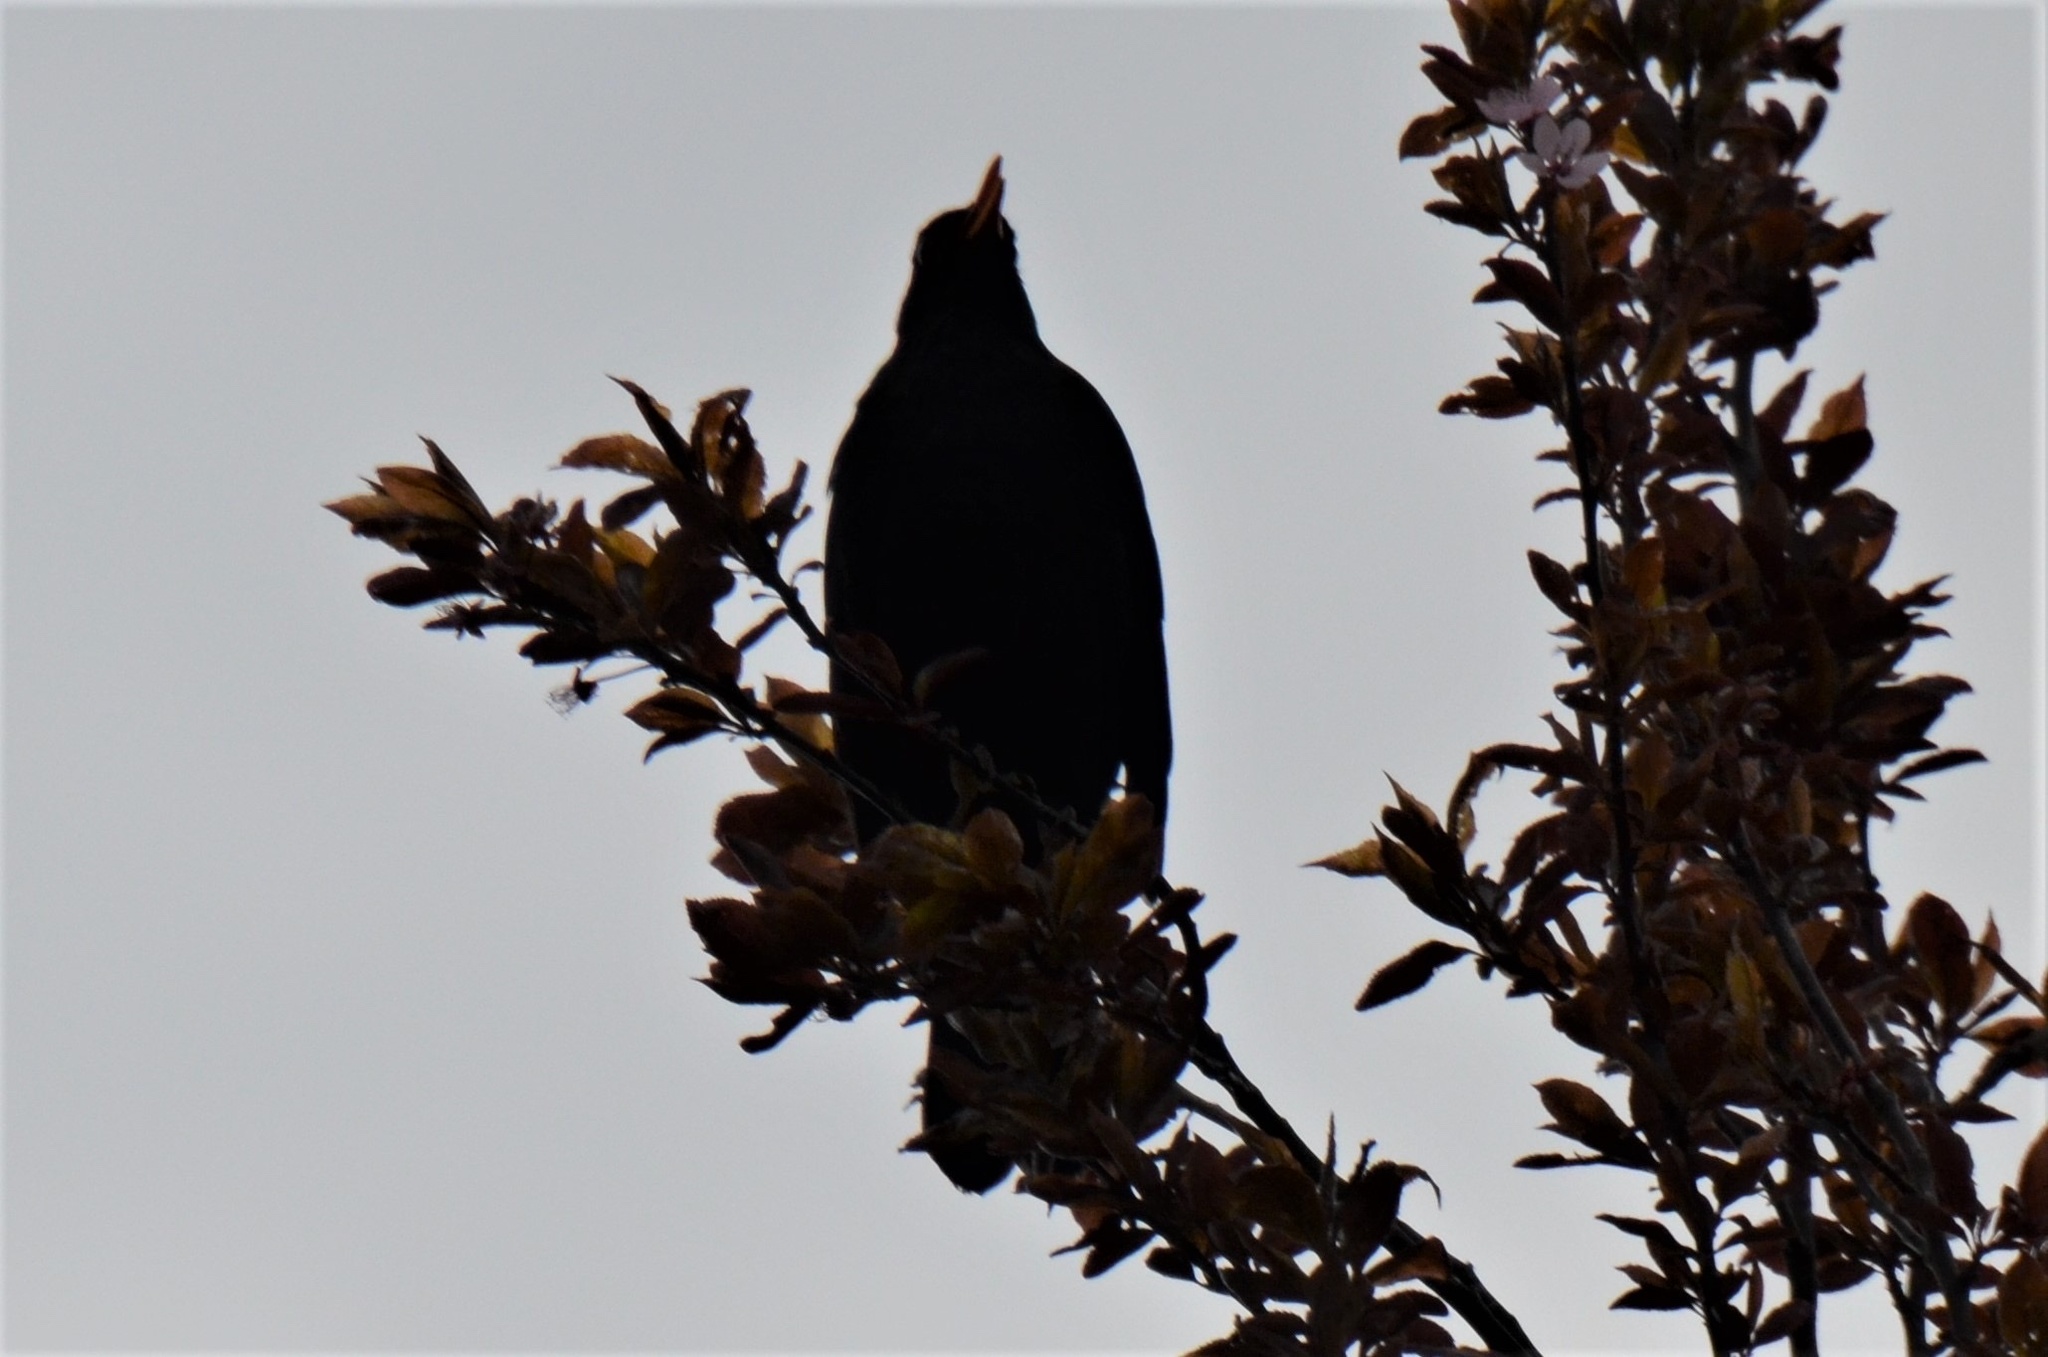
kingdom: Animalia
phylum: Chordata
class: Aves
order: Passeriformes
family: Turdidae
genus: Turdus
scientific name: Turdus merula
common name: Common blackbird
